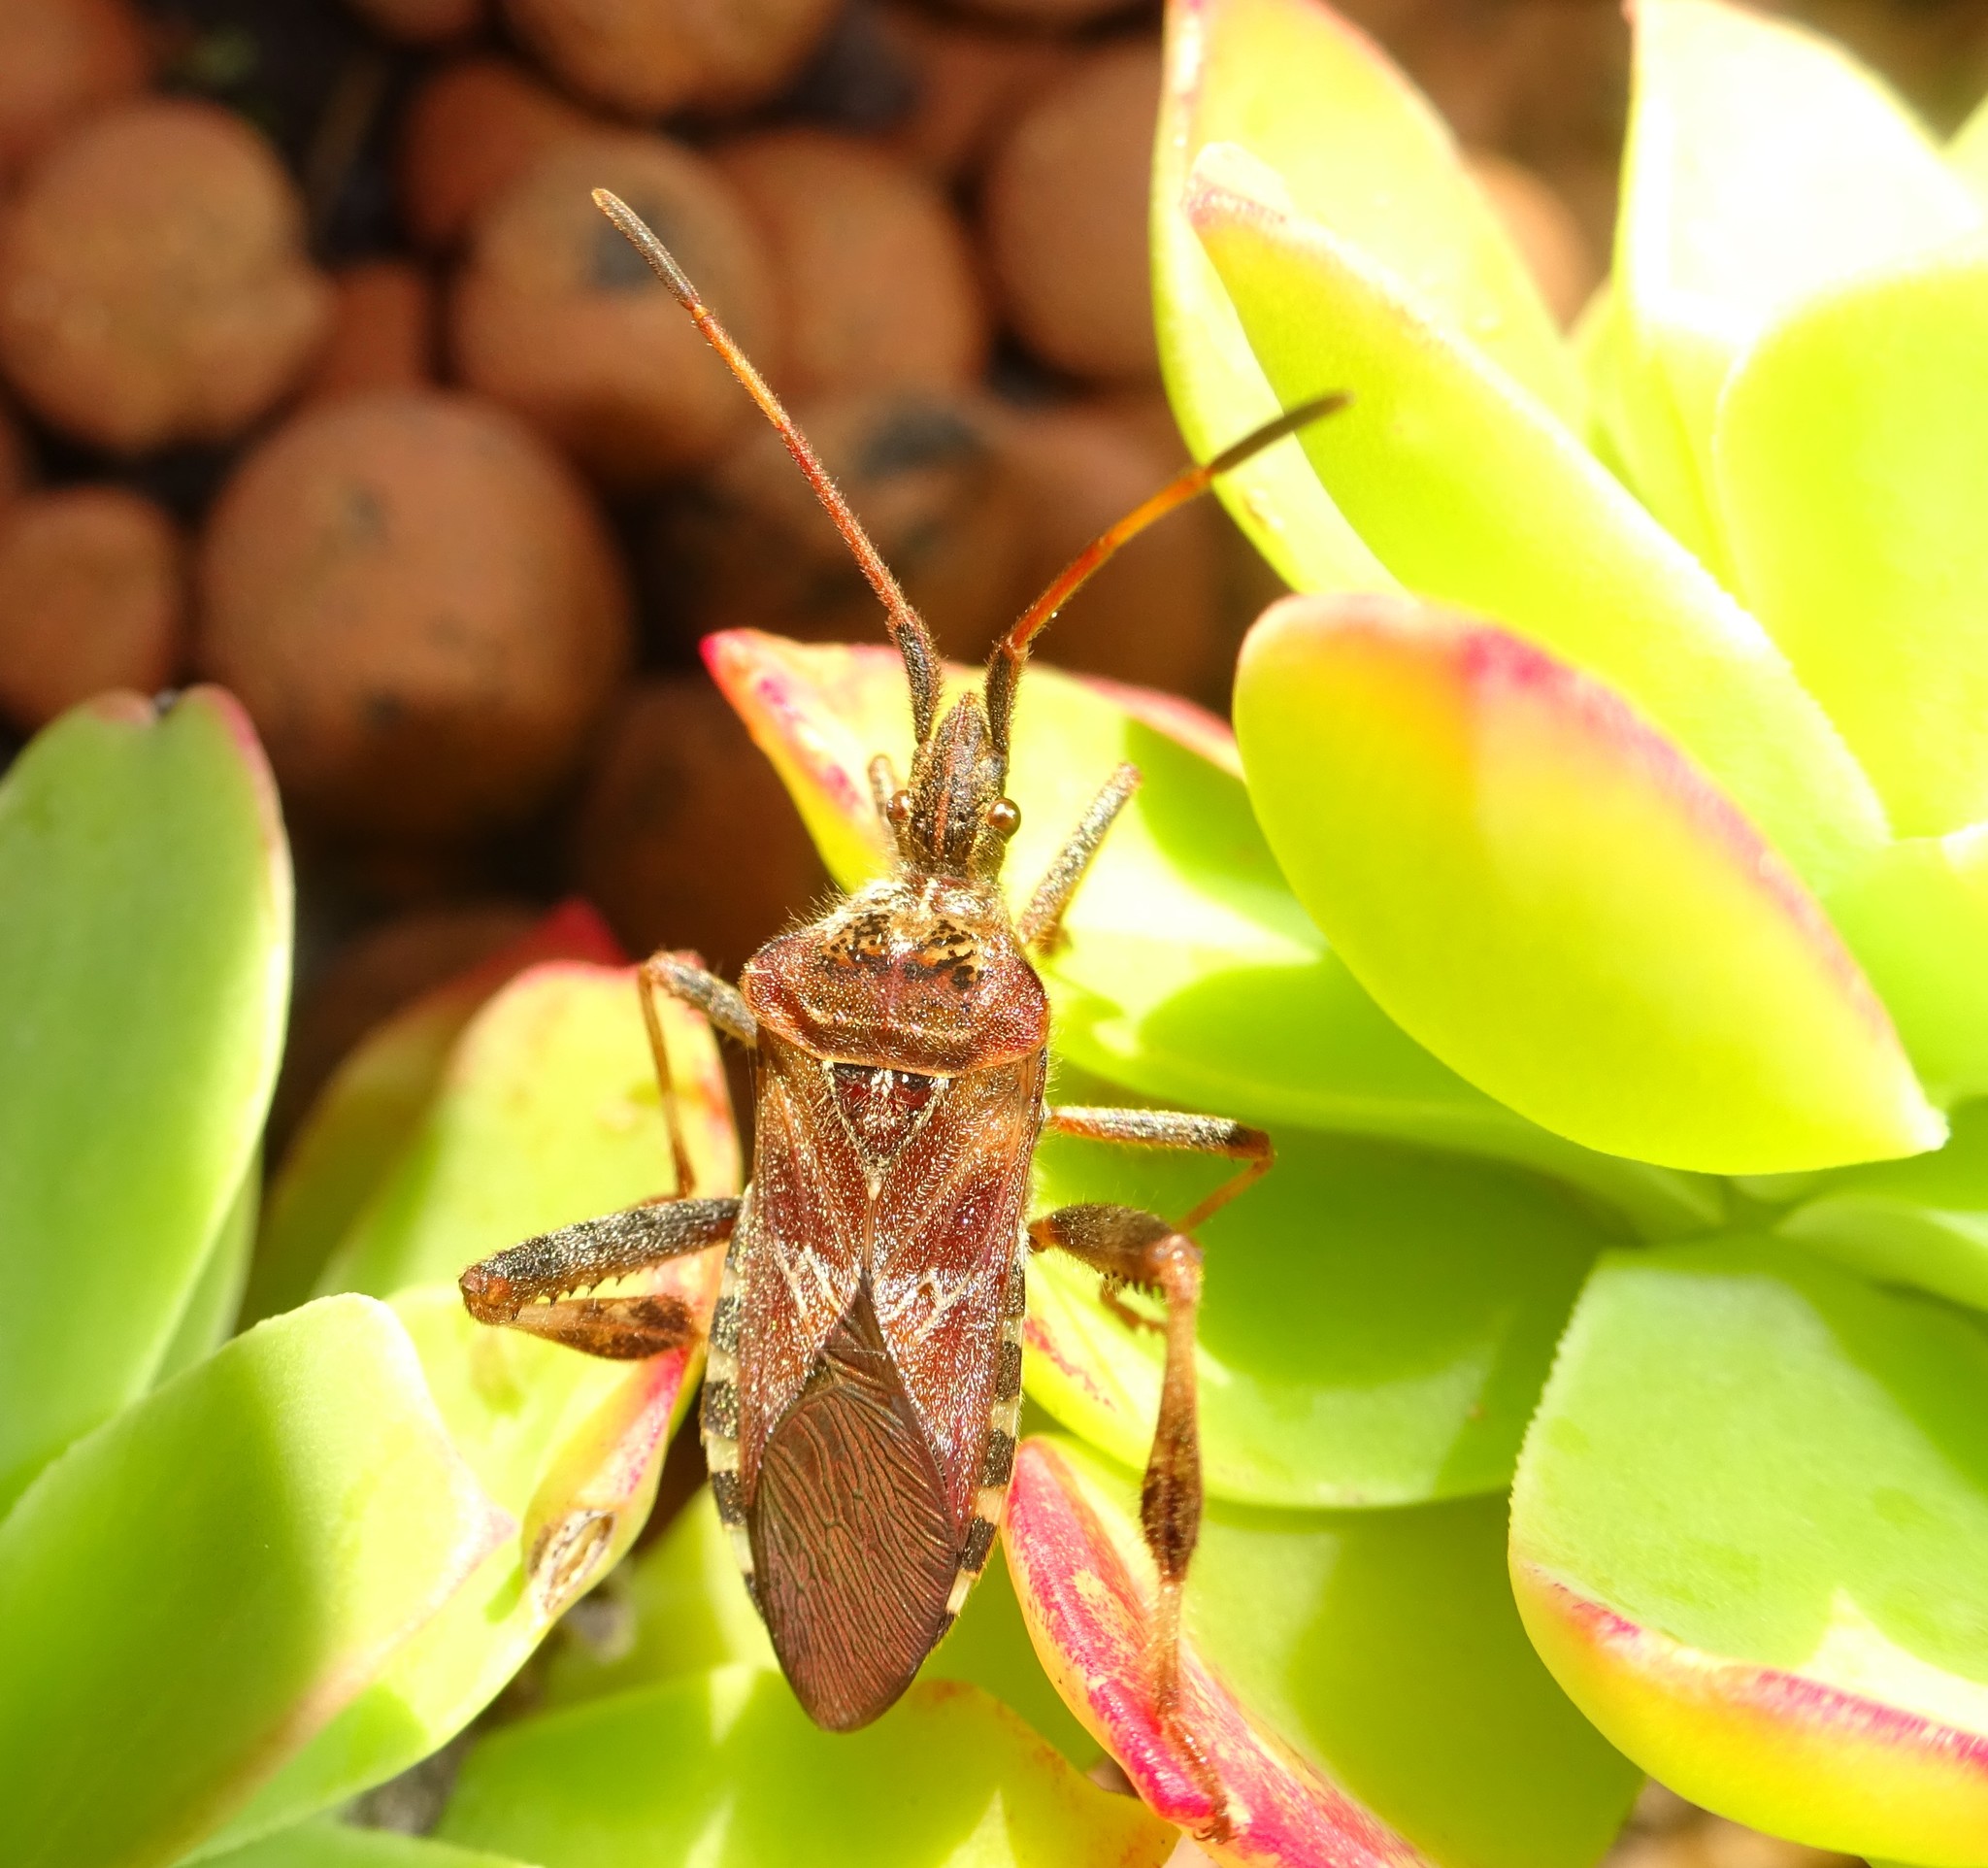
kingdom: Animalia
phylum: Arthropoda
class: Insecta
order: Hemiptera
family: Coreidae
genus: Leptoglossus
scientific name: Leptoglossus occidentalis
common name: Western conifer-seed bug
